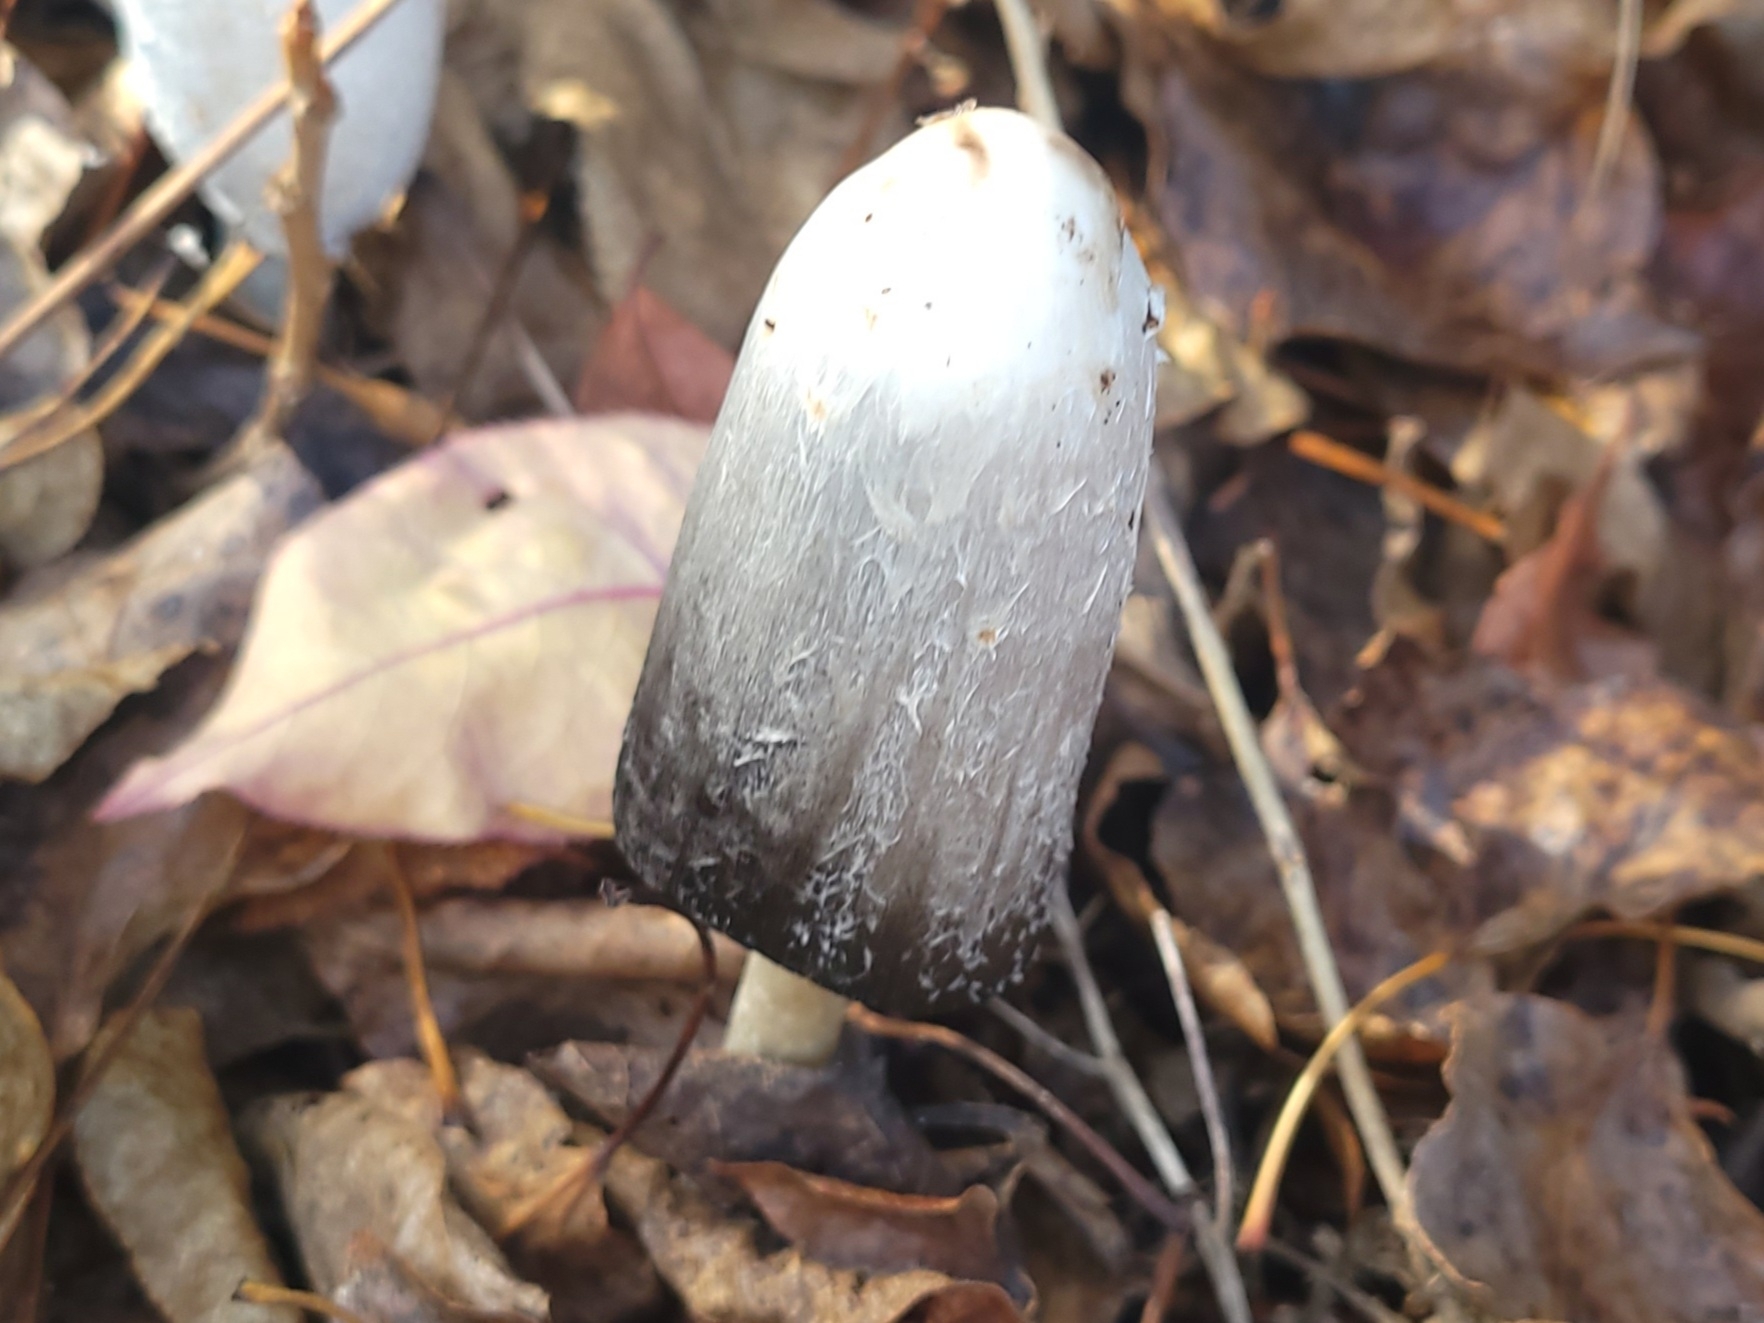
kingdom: Fungi
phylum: Basidiomycota
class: Agaricomycetes
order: Agaricales
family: Agaricaceae
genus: Coprinus
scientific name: Coprinus comatus
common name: Lawyer's wig
